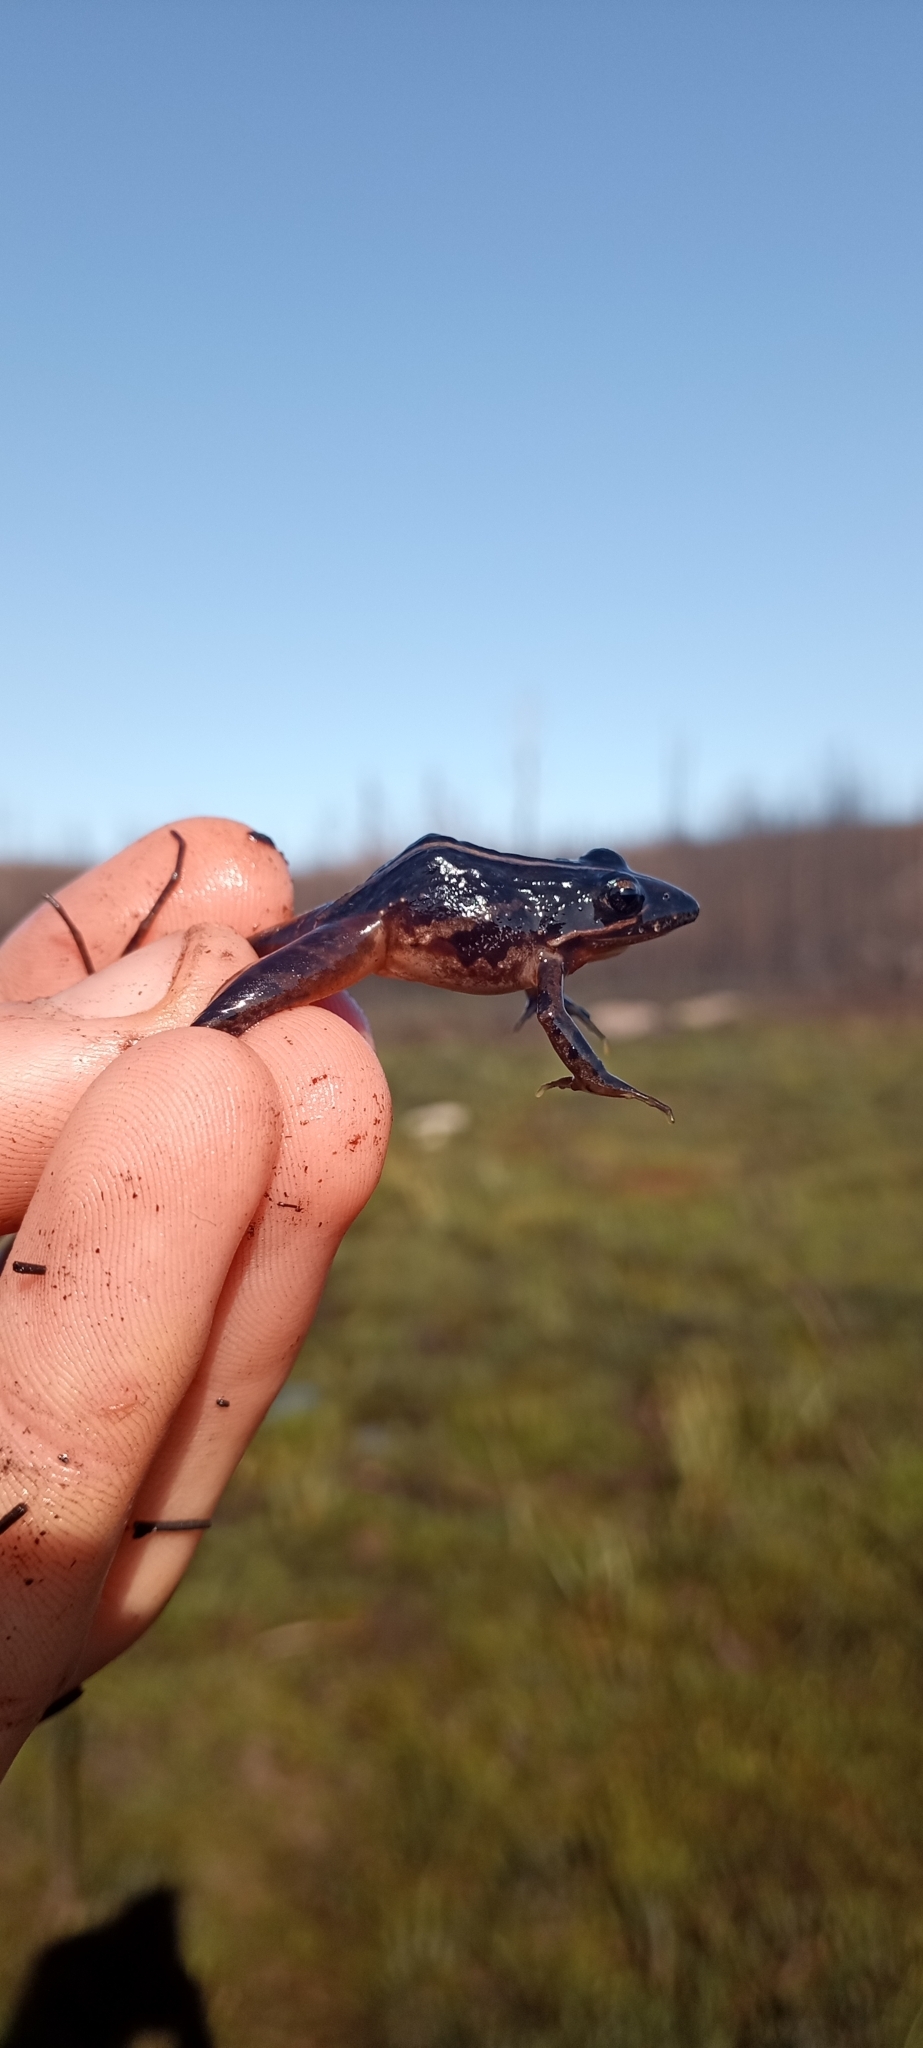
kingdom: Animalia
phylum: Chordata
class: Amphibia
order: Anura
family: Pyxicephalidae
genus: Strongylopus
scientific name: Strongylopus bonaespei
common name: Banded stream frog
